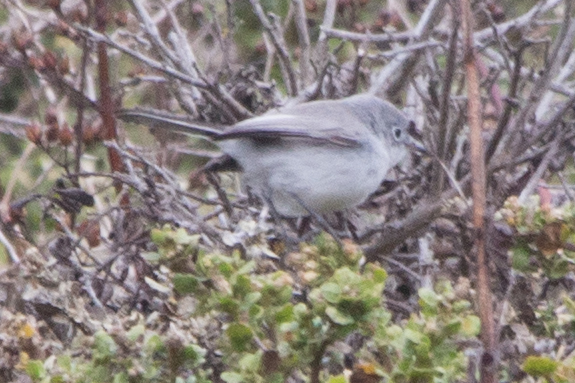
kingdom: Animalia
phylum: Chordata
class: Aves
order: Passeriformes
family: Polioptilidae
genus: Polioptila
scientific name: Polioptila caerulea
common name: Blue-gray gnatcatcher
